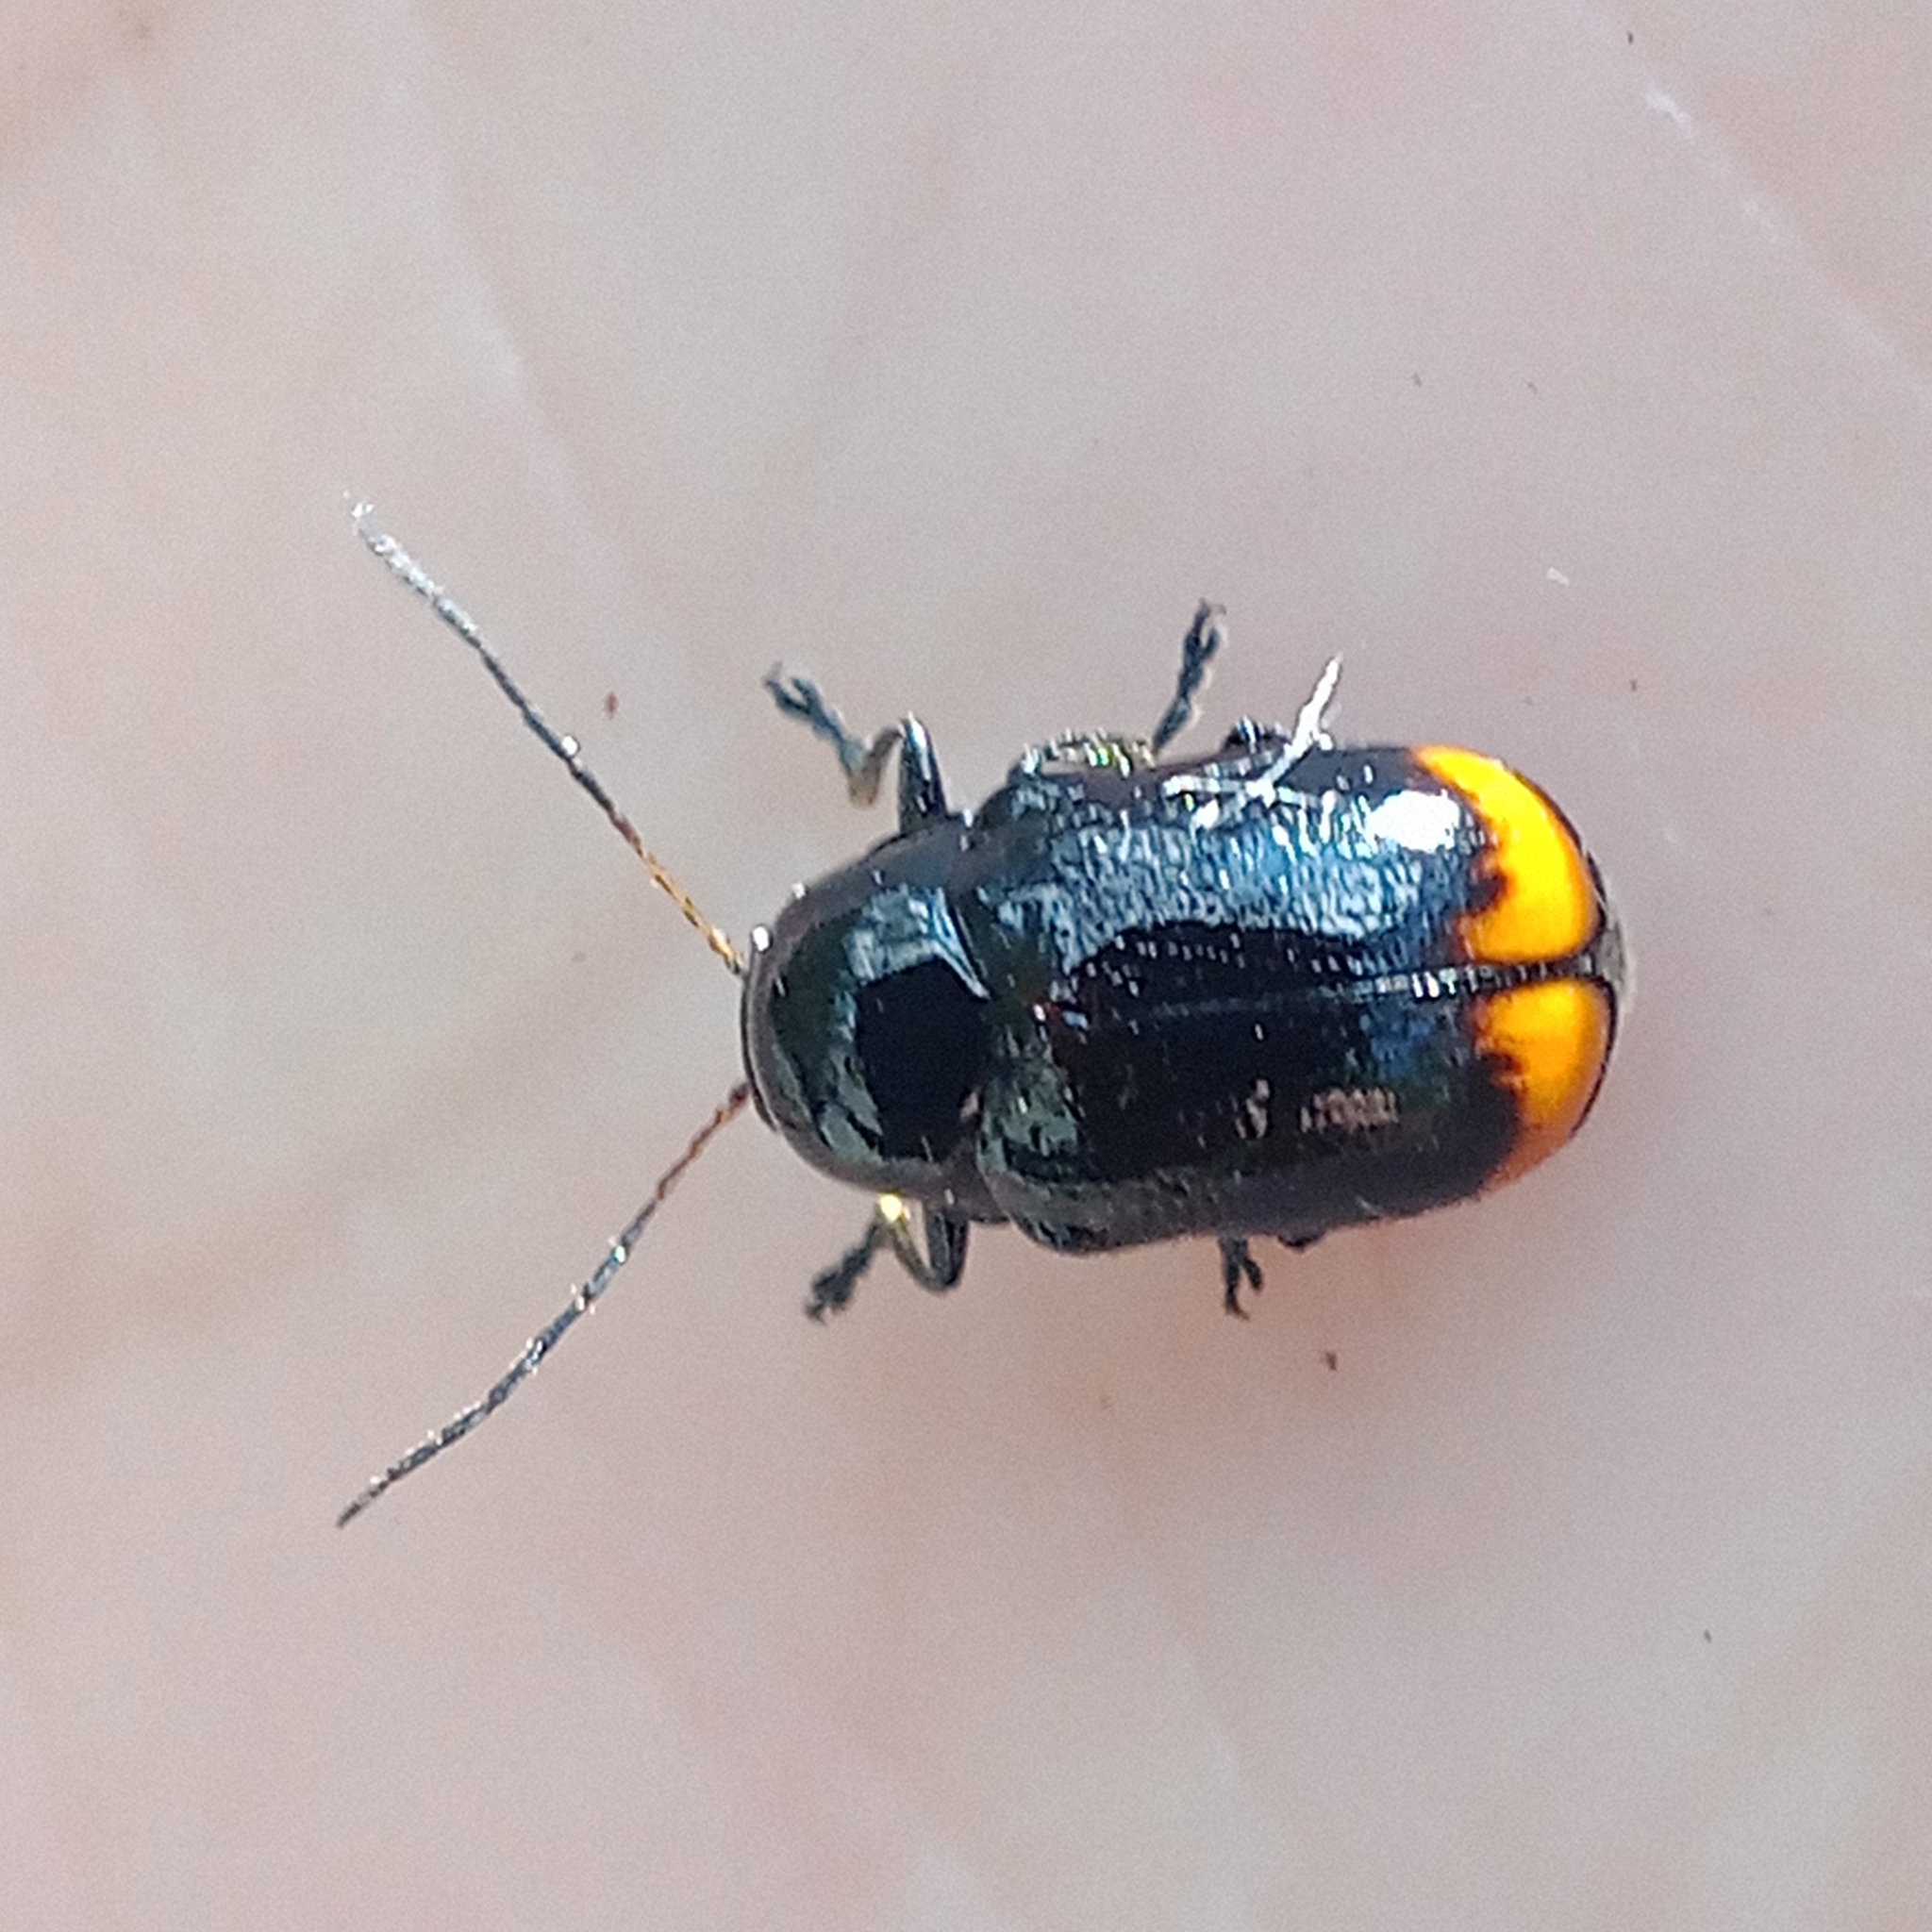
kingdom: Animalia
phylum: Arthropoda
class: Insecta
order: Coleoptera
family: Chrysomelidae
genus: Chiridopsis
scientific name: Chiridopsis bipunctata
